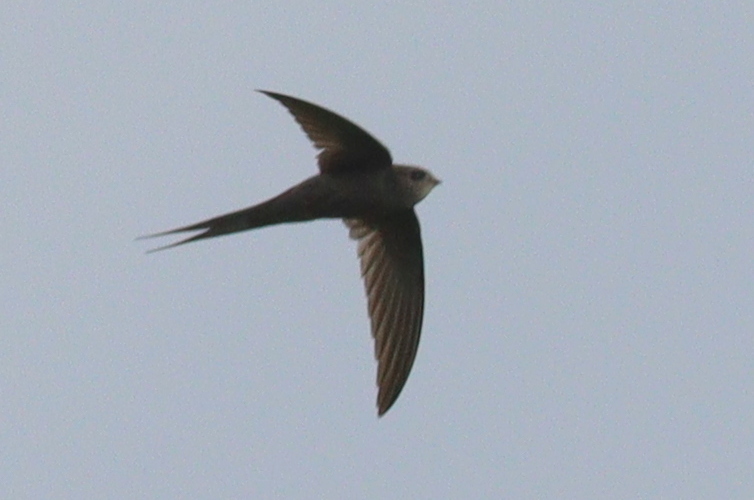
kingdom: Animalia
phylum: Chordata
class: Aves
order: Apodiformes
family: Apodidae
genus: Cypsiurus
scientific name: Cypsiurus parvus
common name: African palm swift
